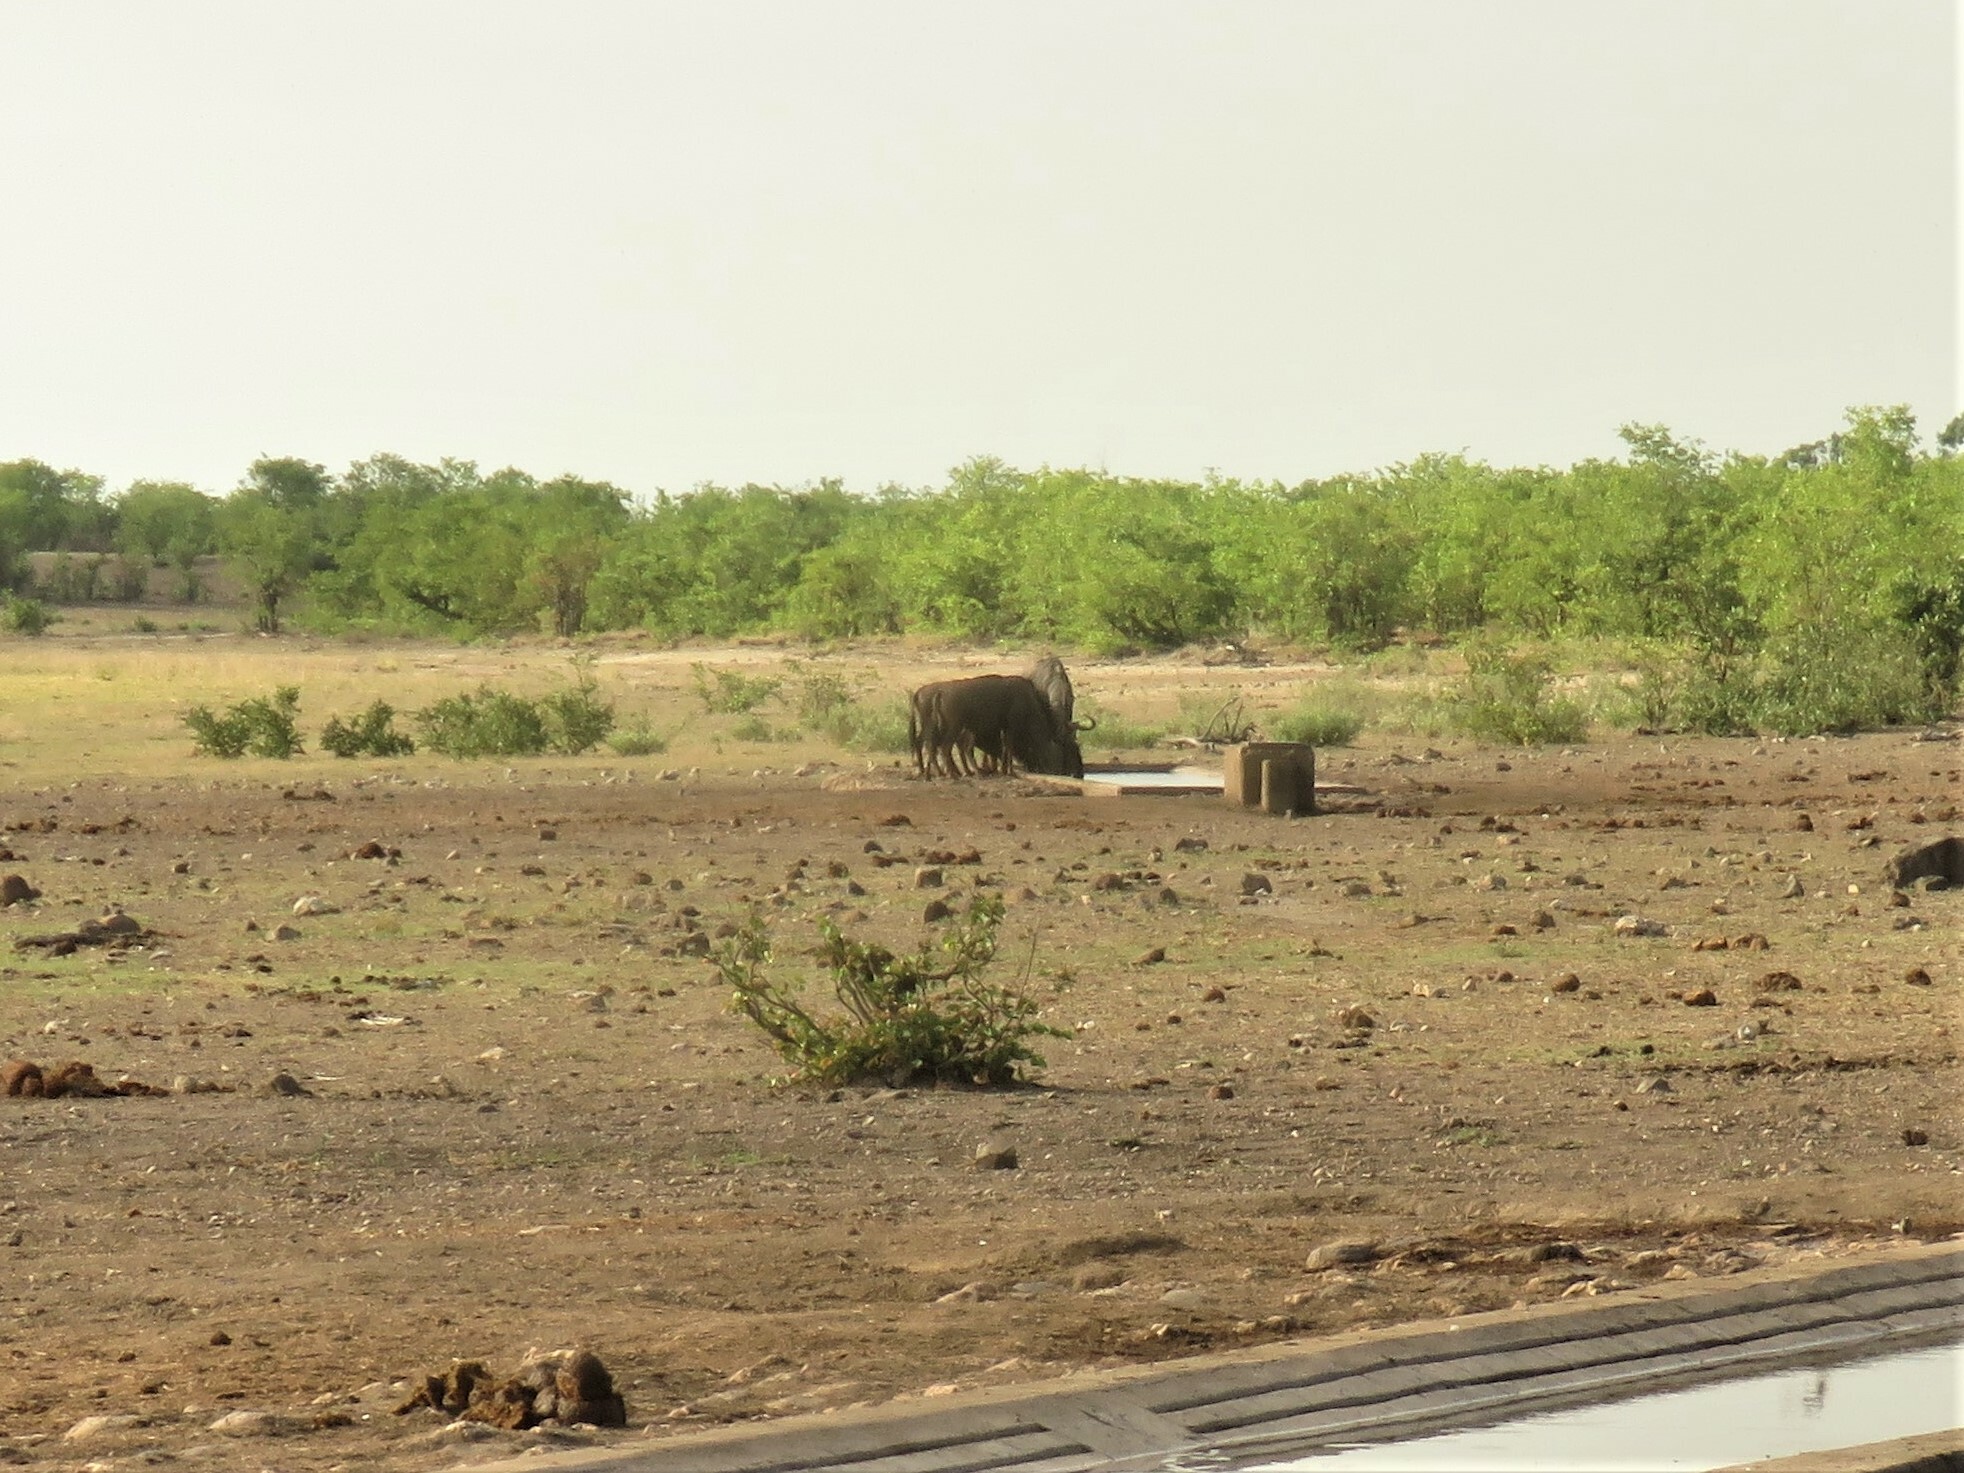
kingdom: Animalia
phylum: Chordata
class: Mammalia
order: Artiodactyla
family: Bovidae
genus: Connochaetes
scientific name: Connochaetes taurinus
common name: Blue wildebeest
